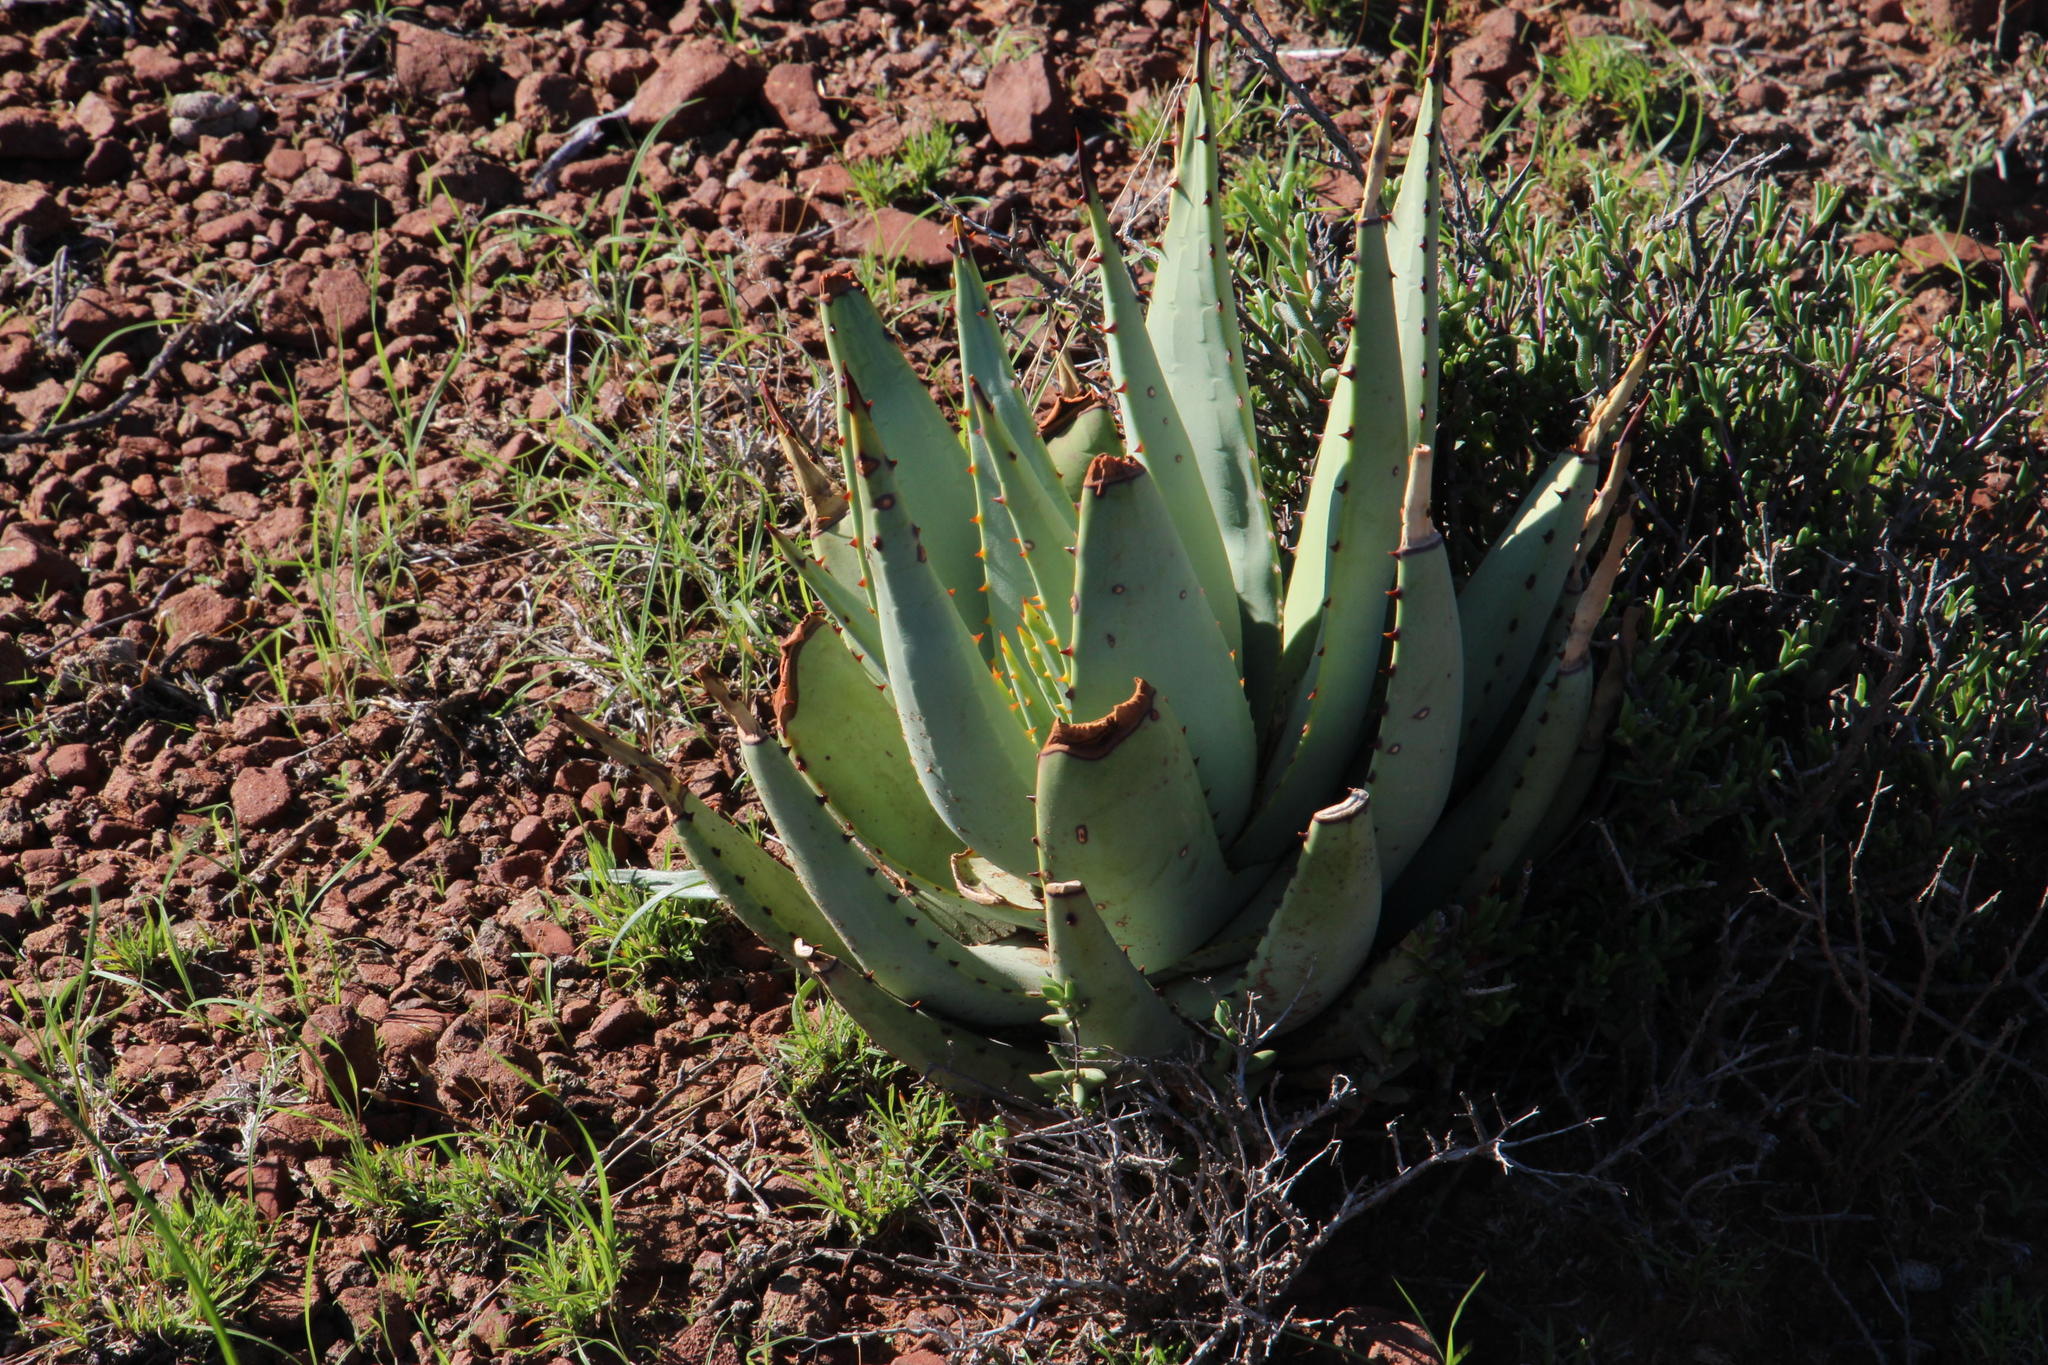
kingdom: Plantae
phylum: Tracheophyta
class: Liliopsida
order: Asparagales
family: Asphodelaceae
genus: Aloe
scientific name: Aloe claviflora
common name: Cannon aloe
